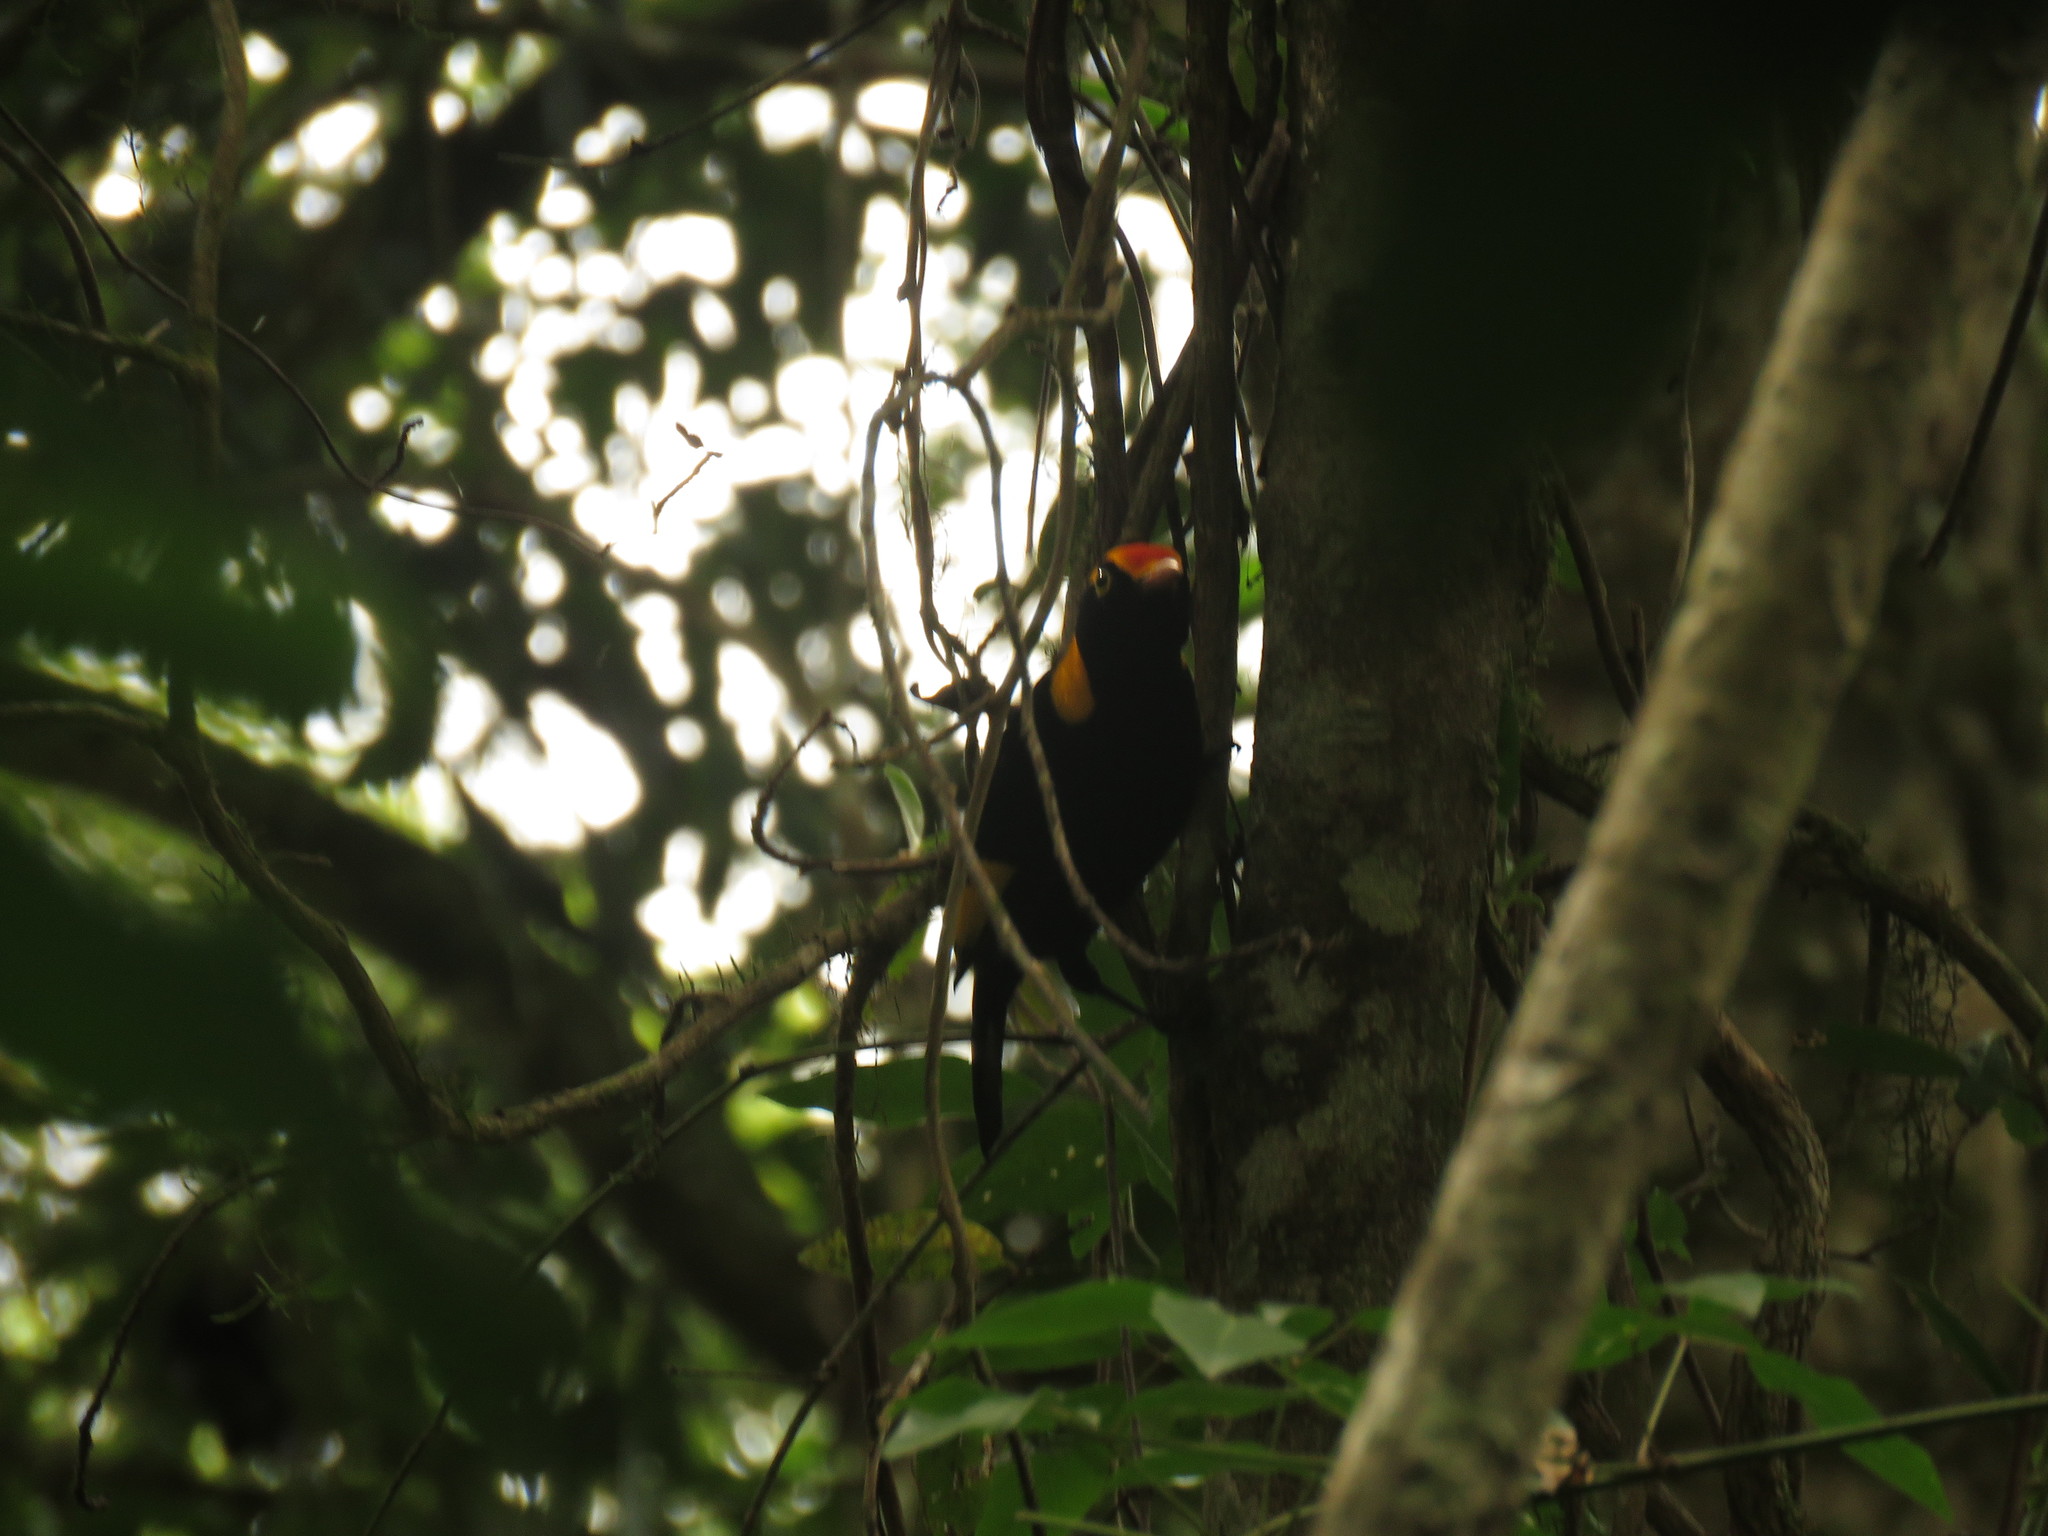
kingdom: Animalia
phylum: Chordata
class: Aves
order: Passeriformes
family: Ptilonorhynchidae
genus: Sericulus
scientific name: Sericulus chrysocephalus
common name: Regent bowerbird
